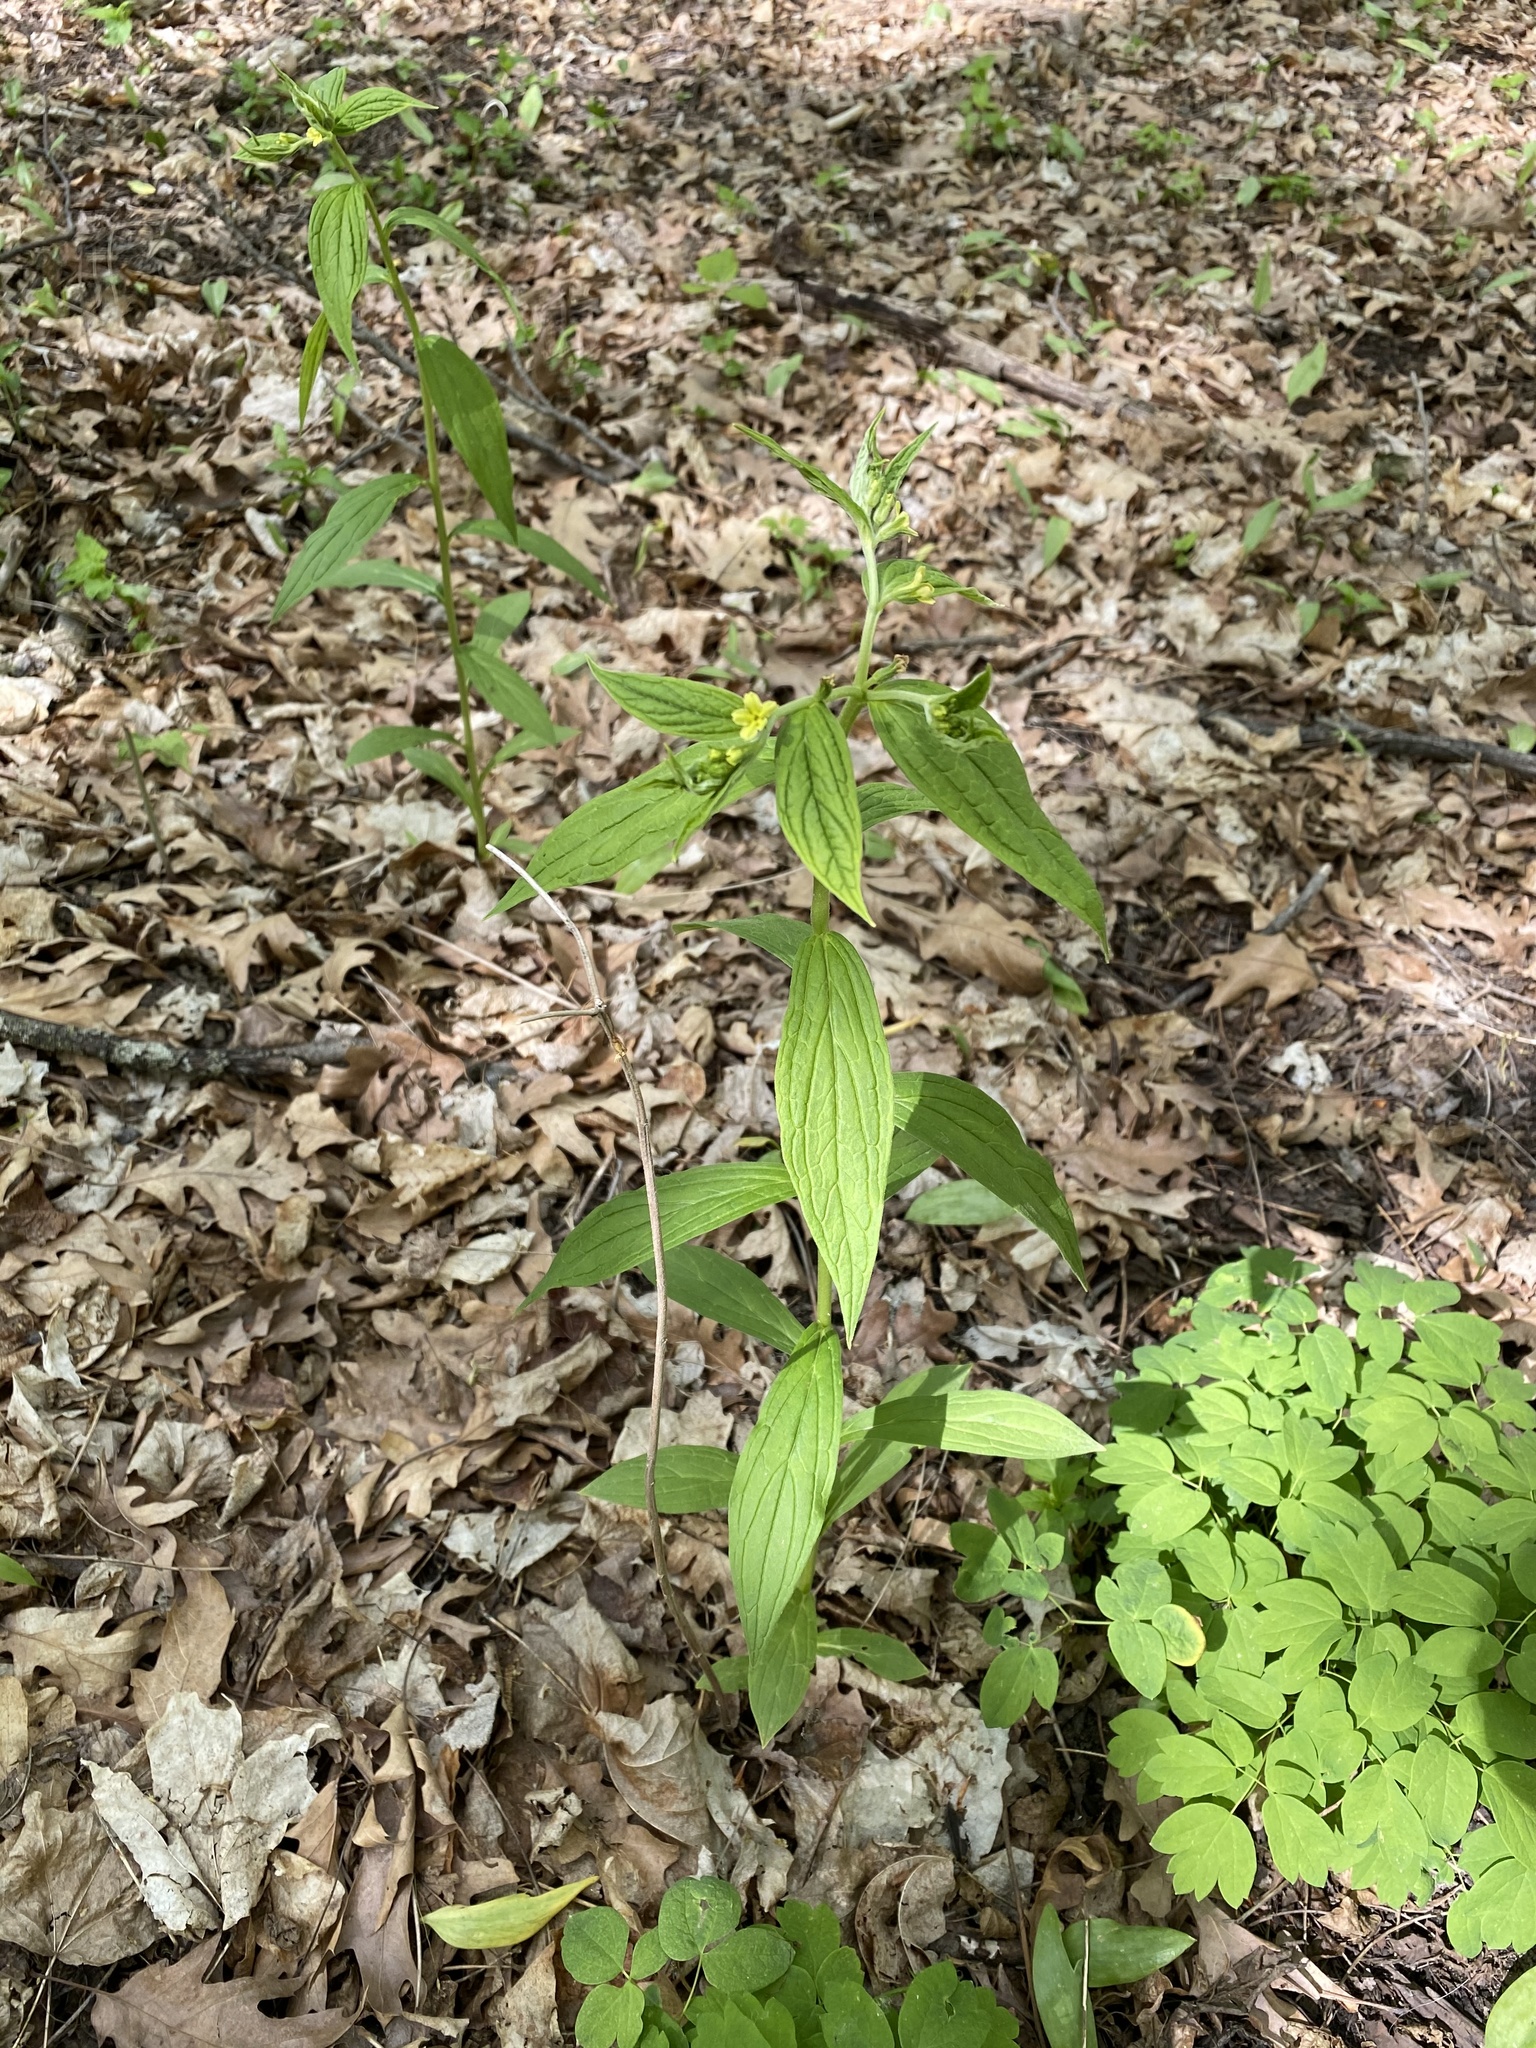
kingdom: Plantae
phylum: Tracheophyta
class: Magnoliopsida
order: Boraginales
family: Boraginaceae
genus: Lithospermum
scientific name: Lithospermum latifolium
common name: American gromwell
